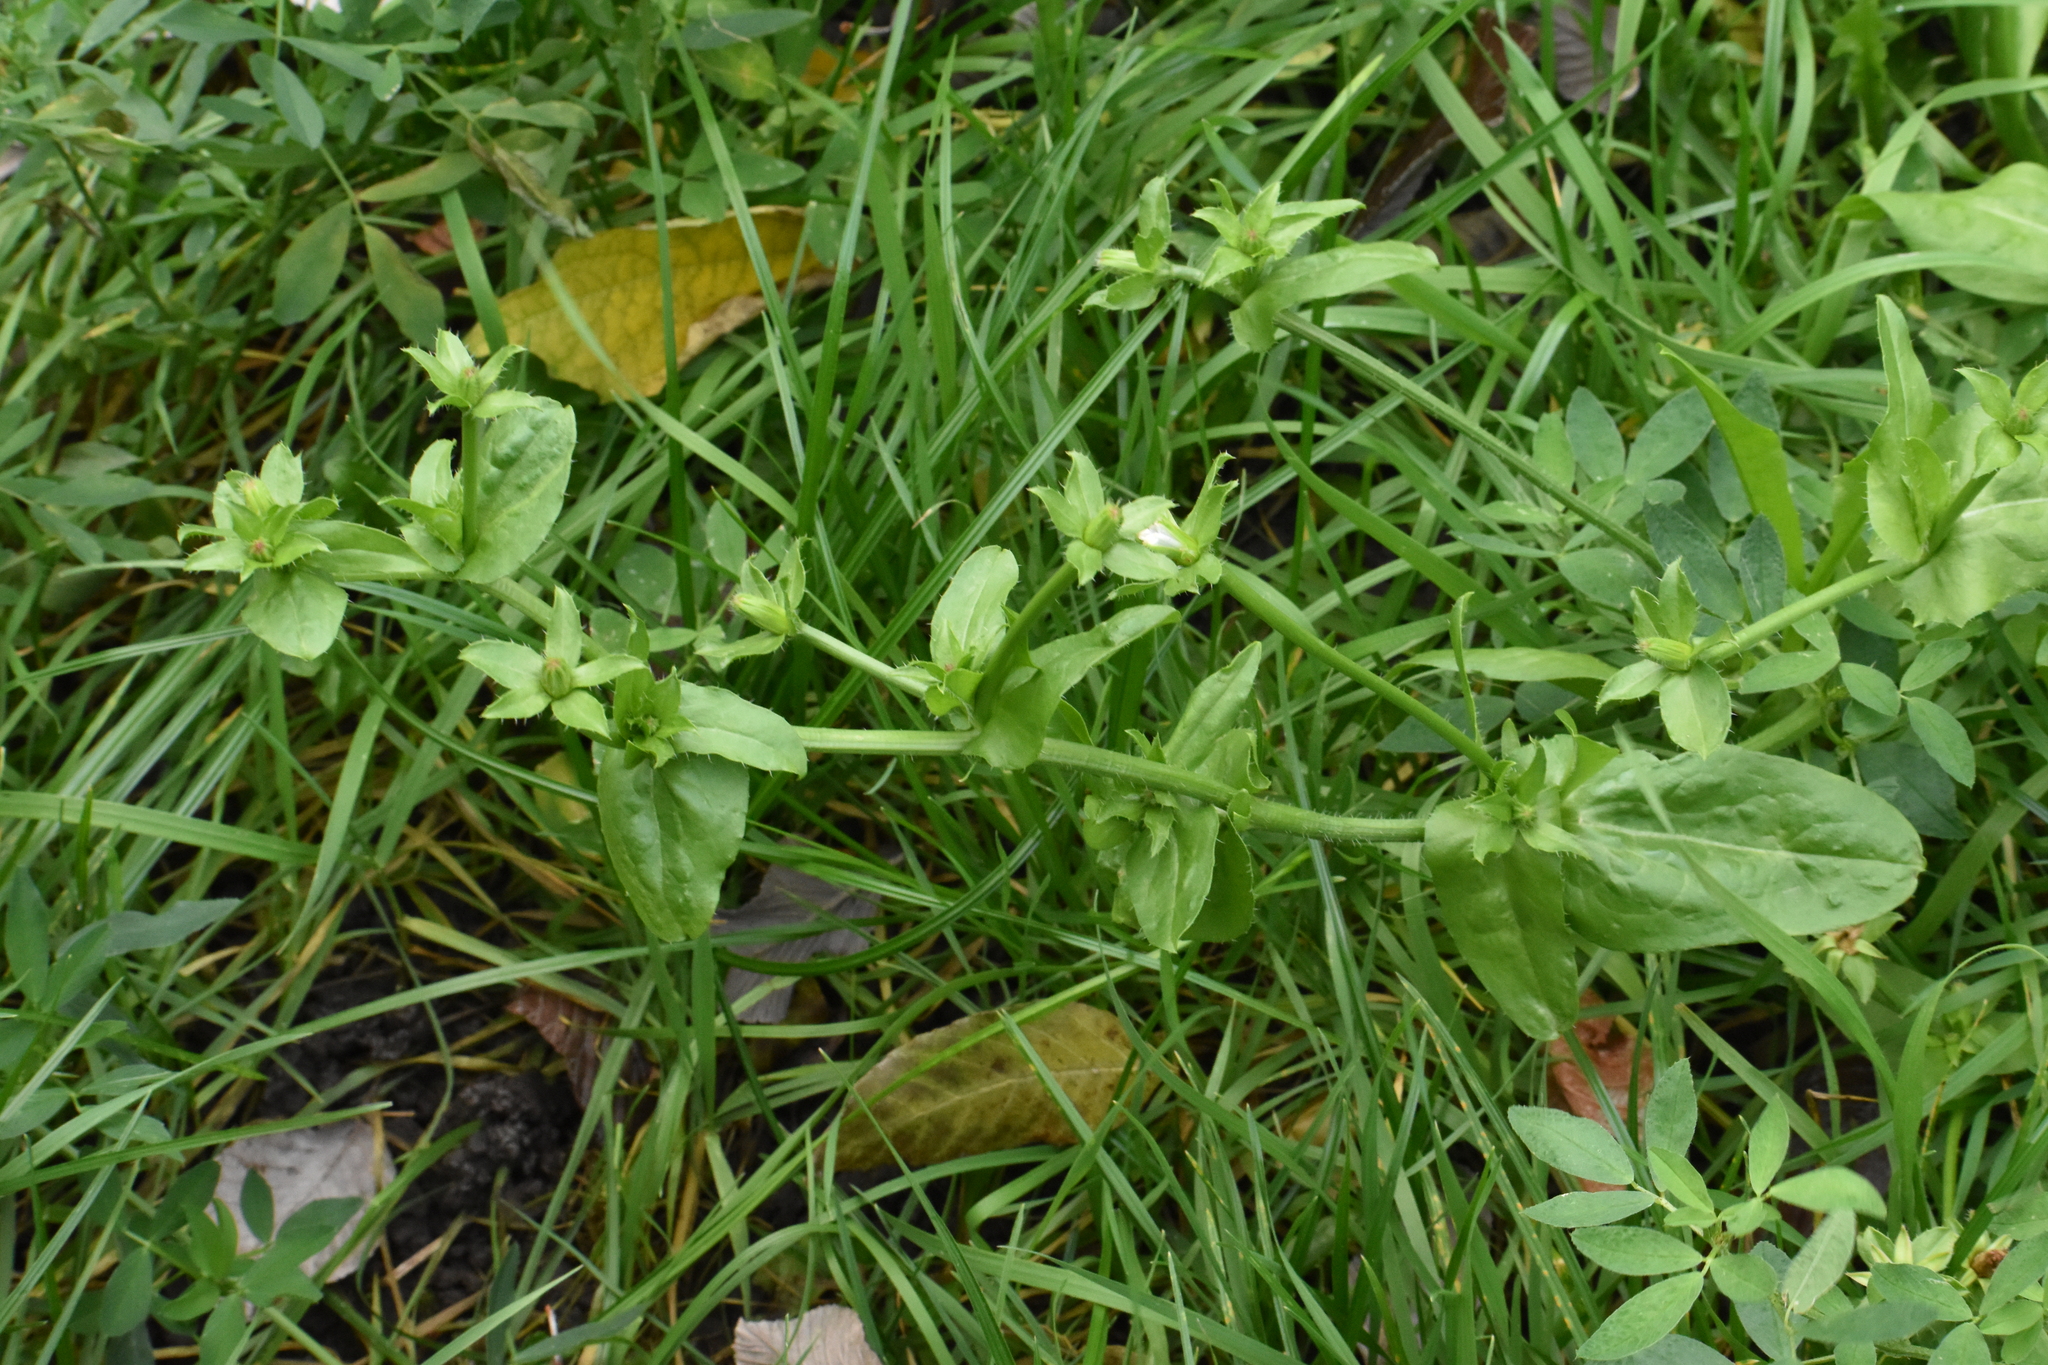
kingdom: Plantae
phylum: Tracheophyta
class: Magnoliopsida
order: Asterales
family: Asteraceae
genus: Cichorium
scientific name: Cichorium intybus
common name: Chicory
